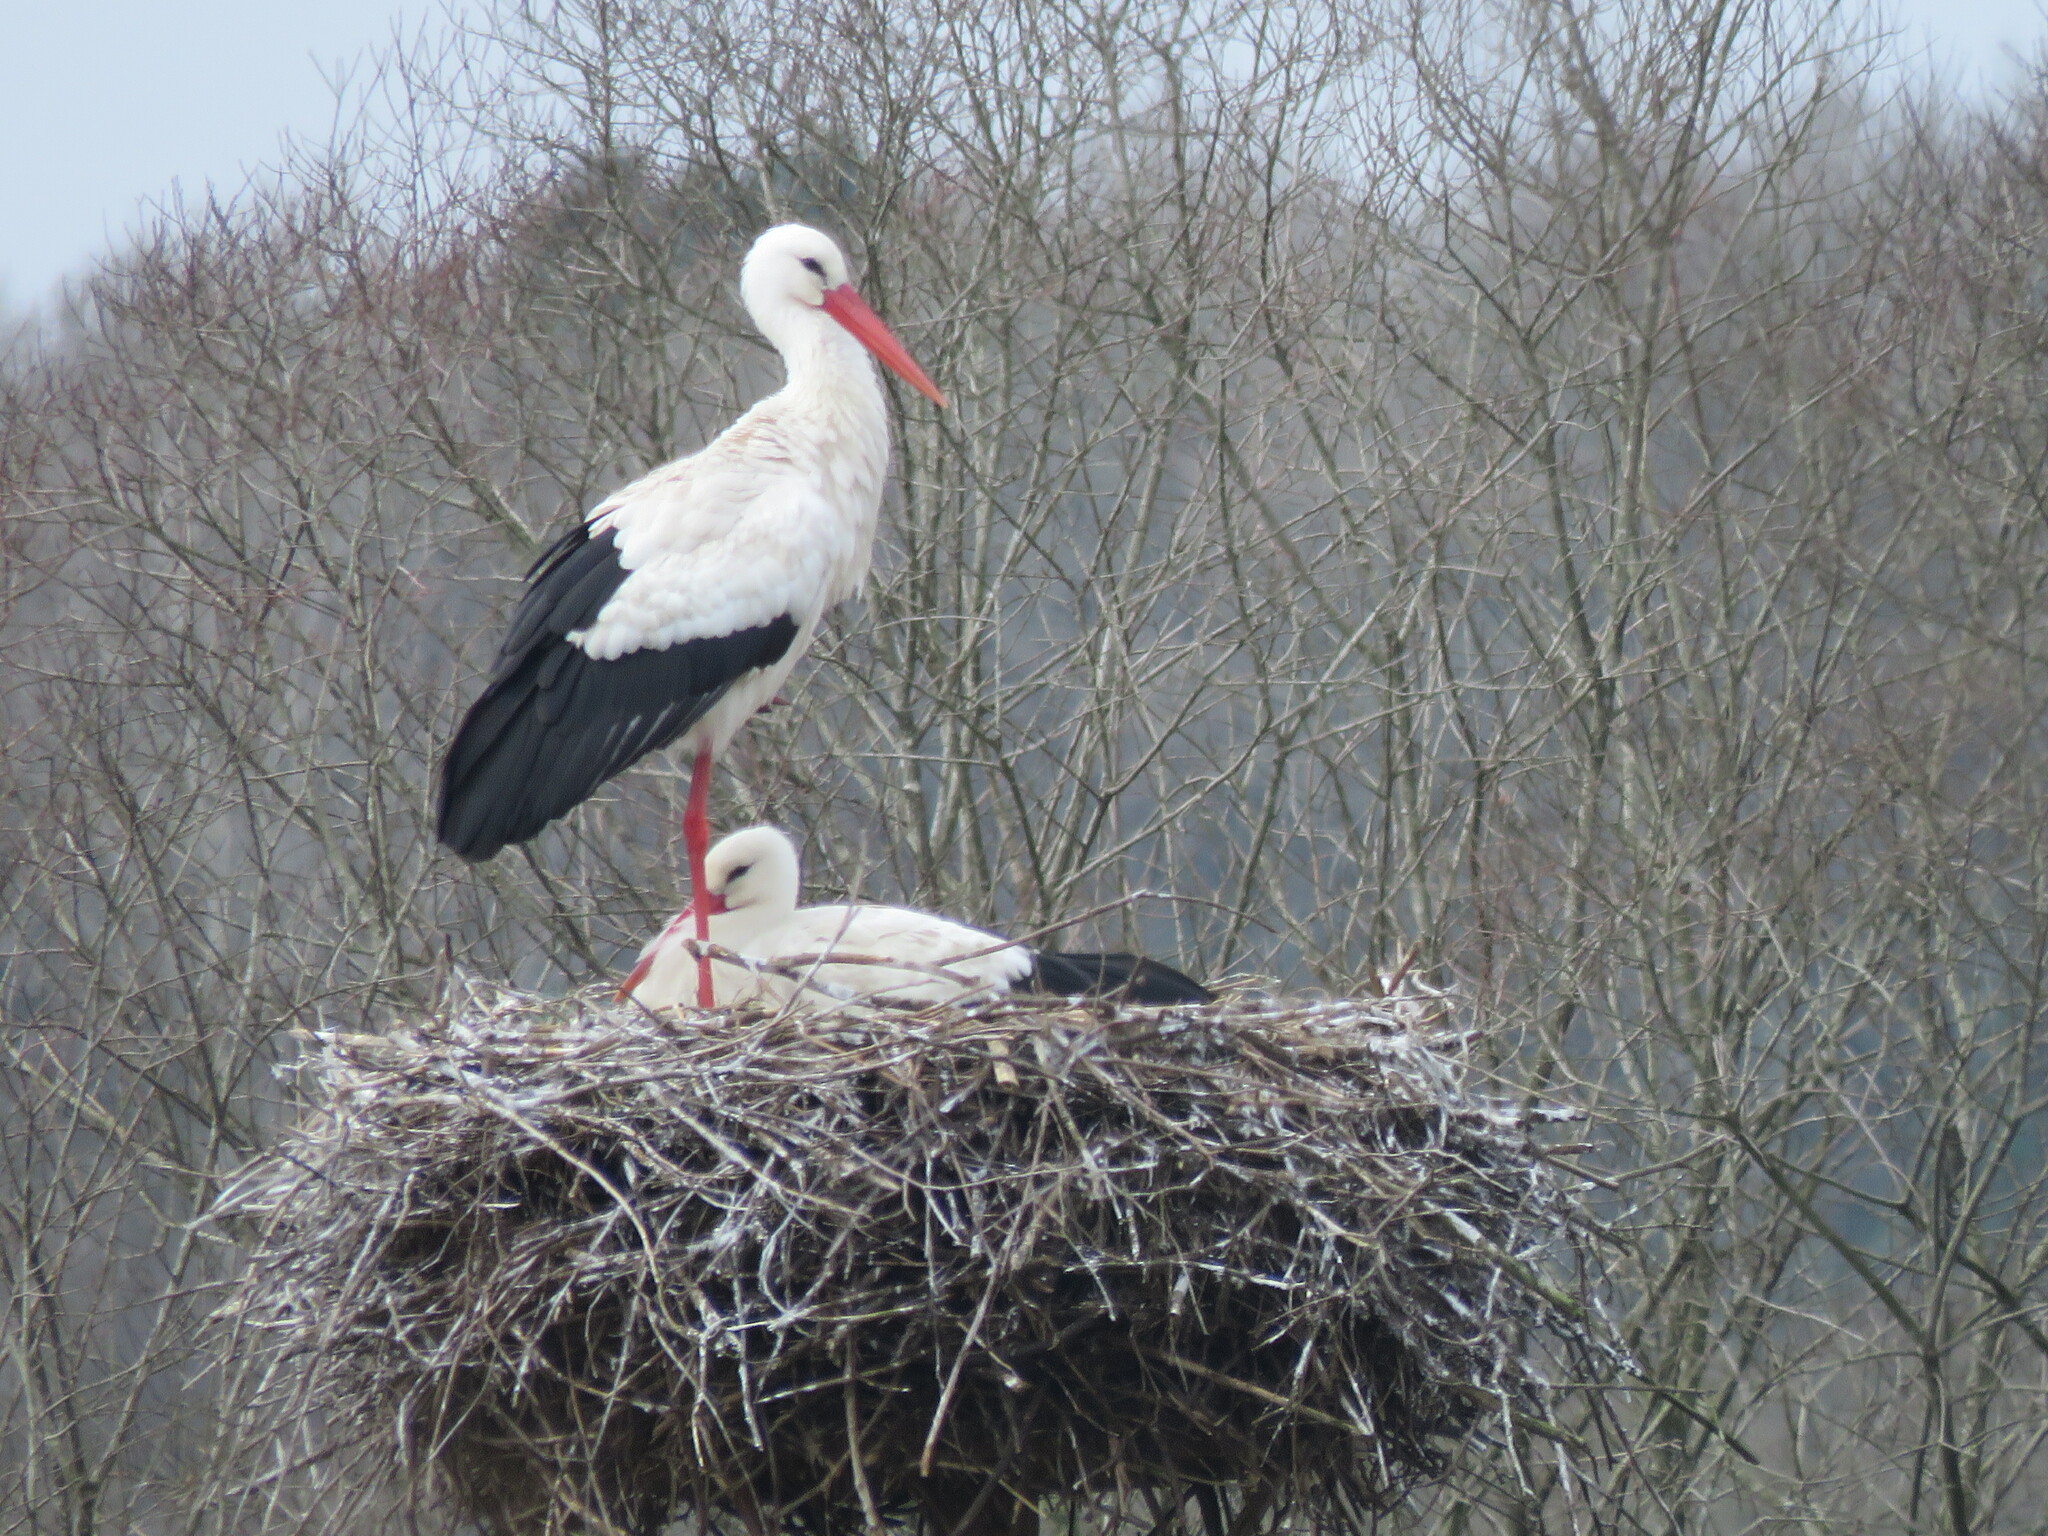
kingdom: Animalia
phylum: Chordata
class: Aves
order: Ciconiiformes
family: Ciconiidae
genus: Ciconia
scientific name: Ciconia ciconia
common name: White stork
